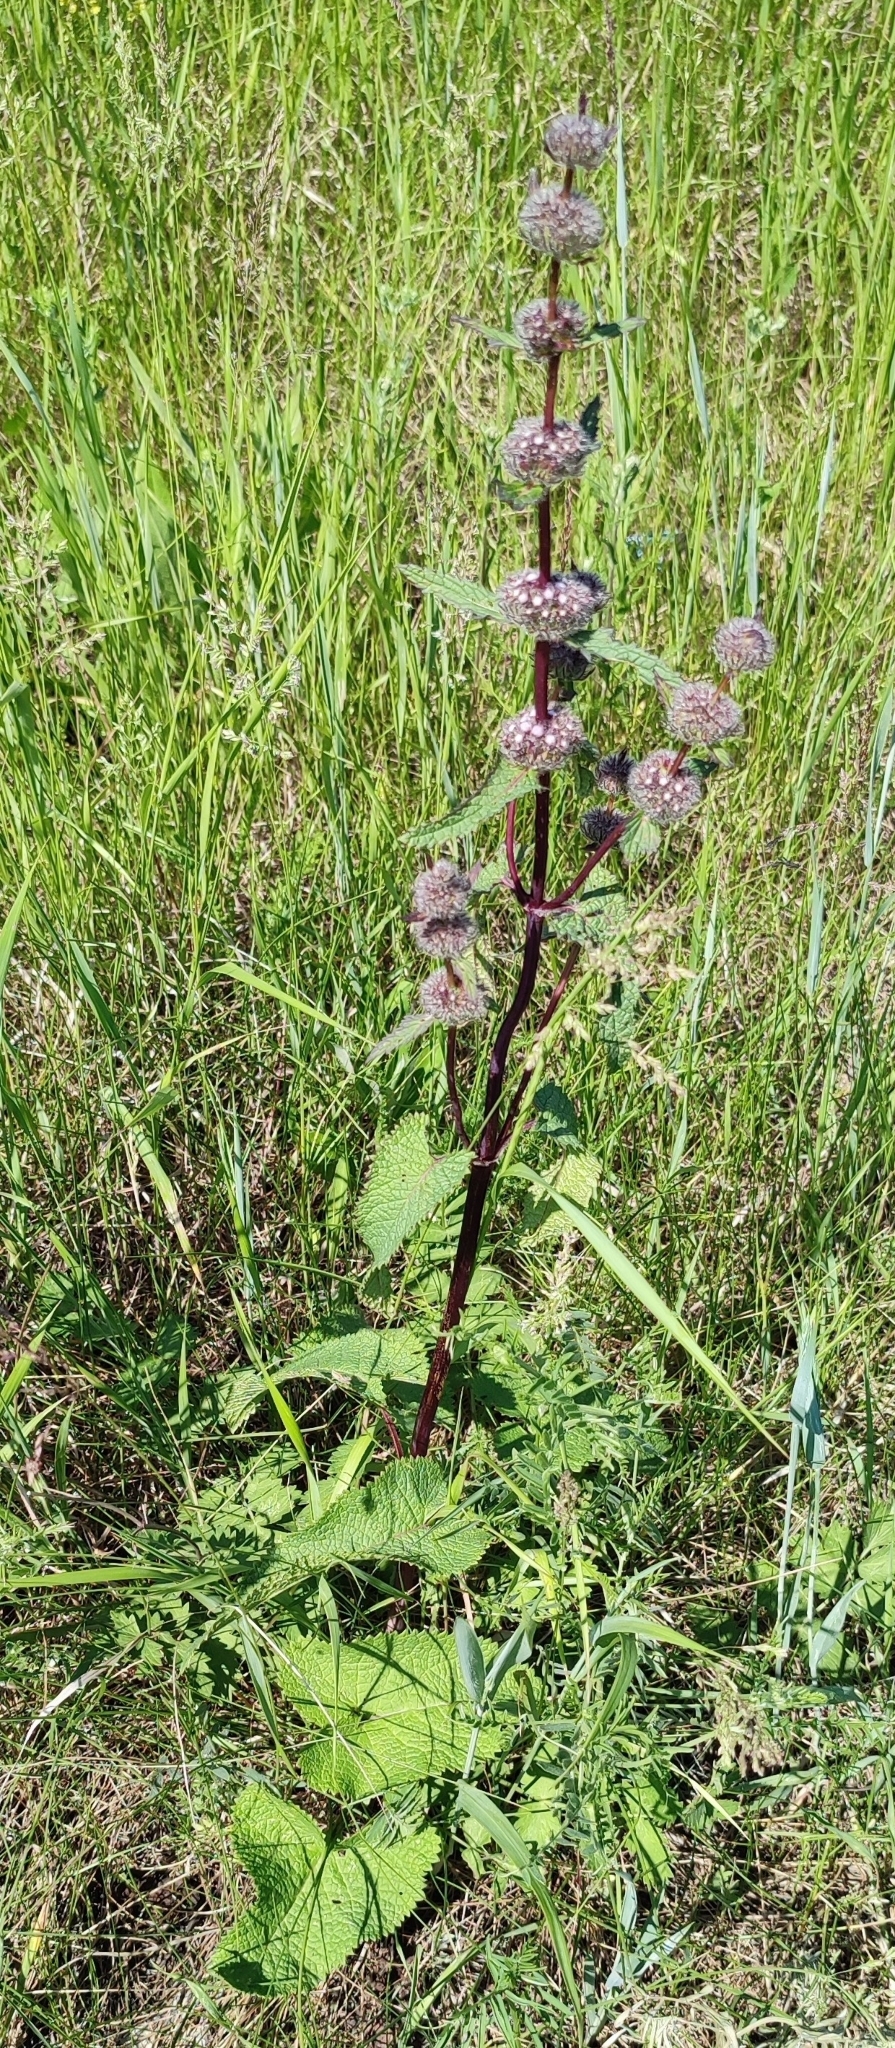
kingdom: Plantae
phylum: Tracheophyta
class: Magnoliopsida
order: Lamiales
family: Lamiaceae
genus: Phlomoides
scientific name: Phlomoides tuberosa
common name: Tuberous jerusalem sage
